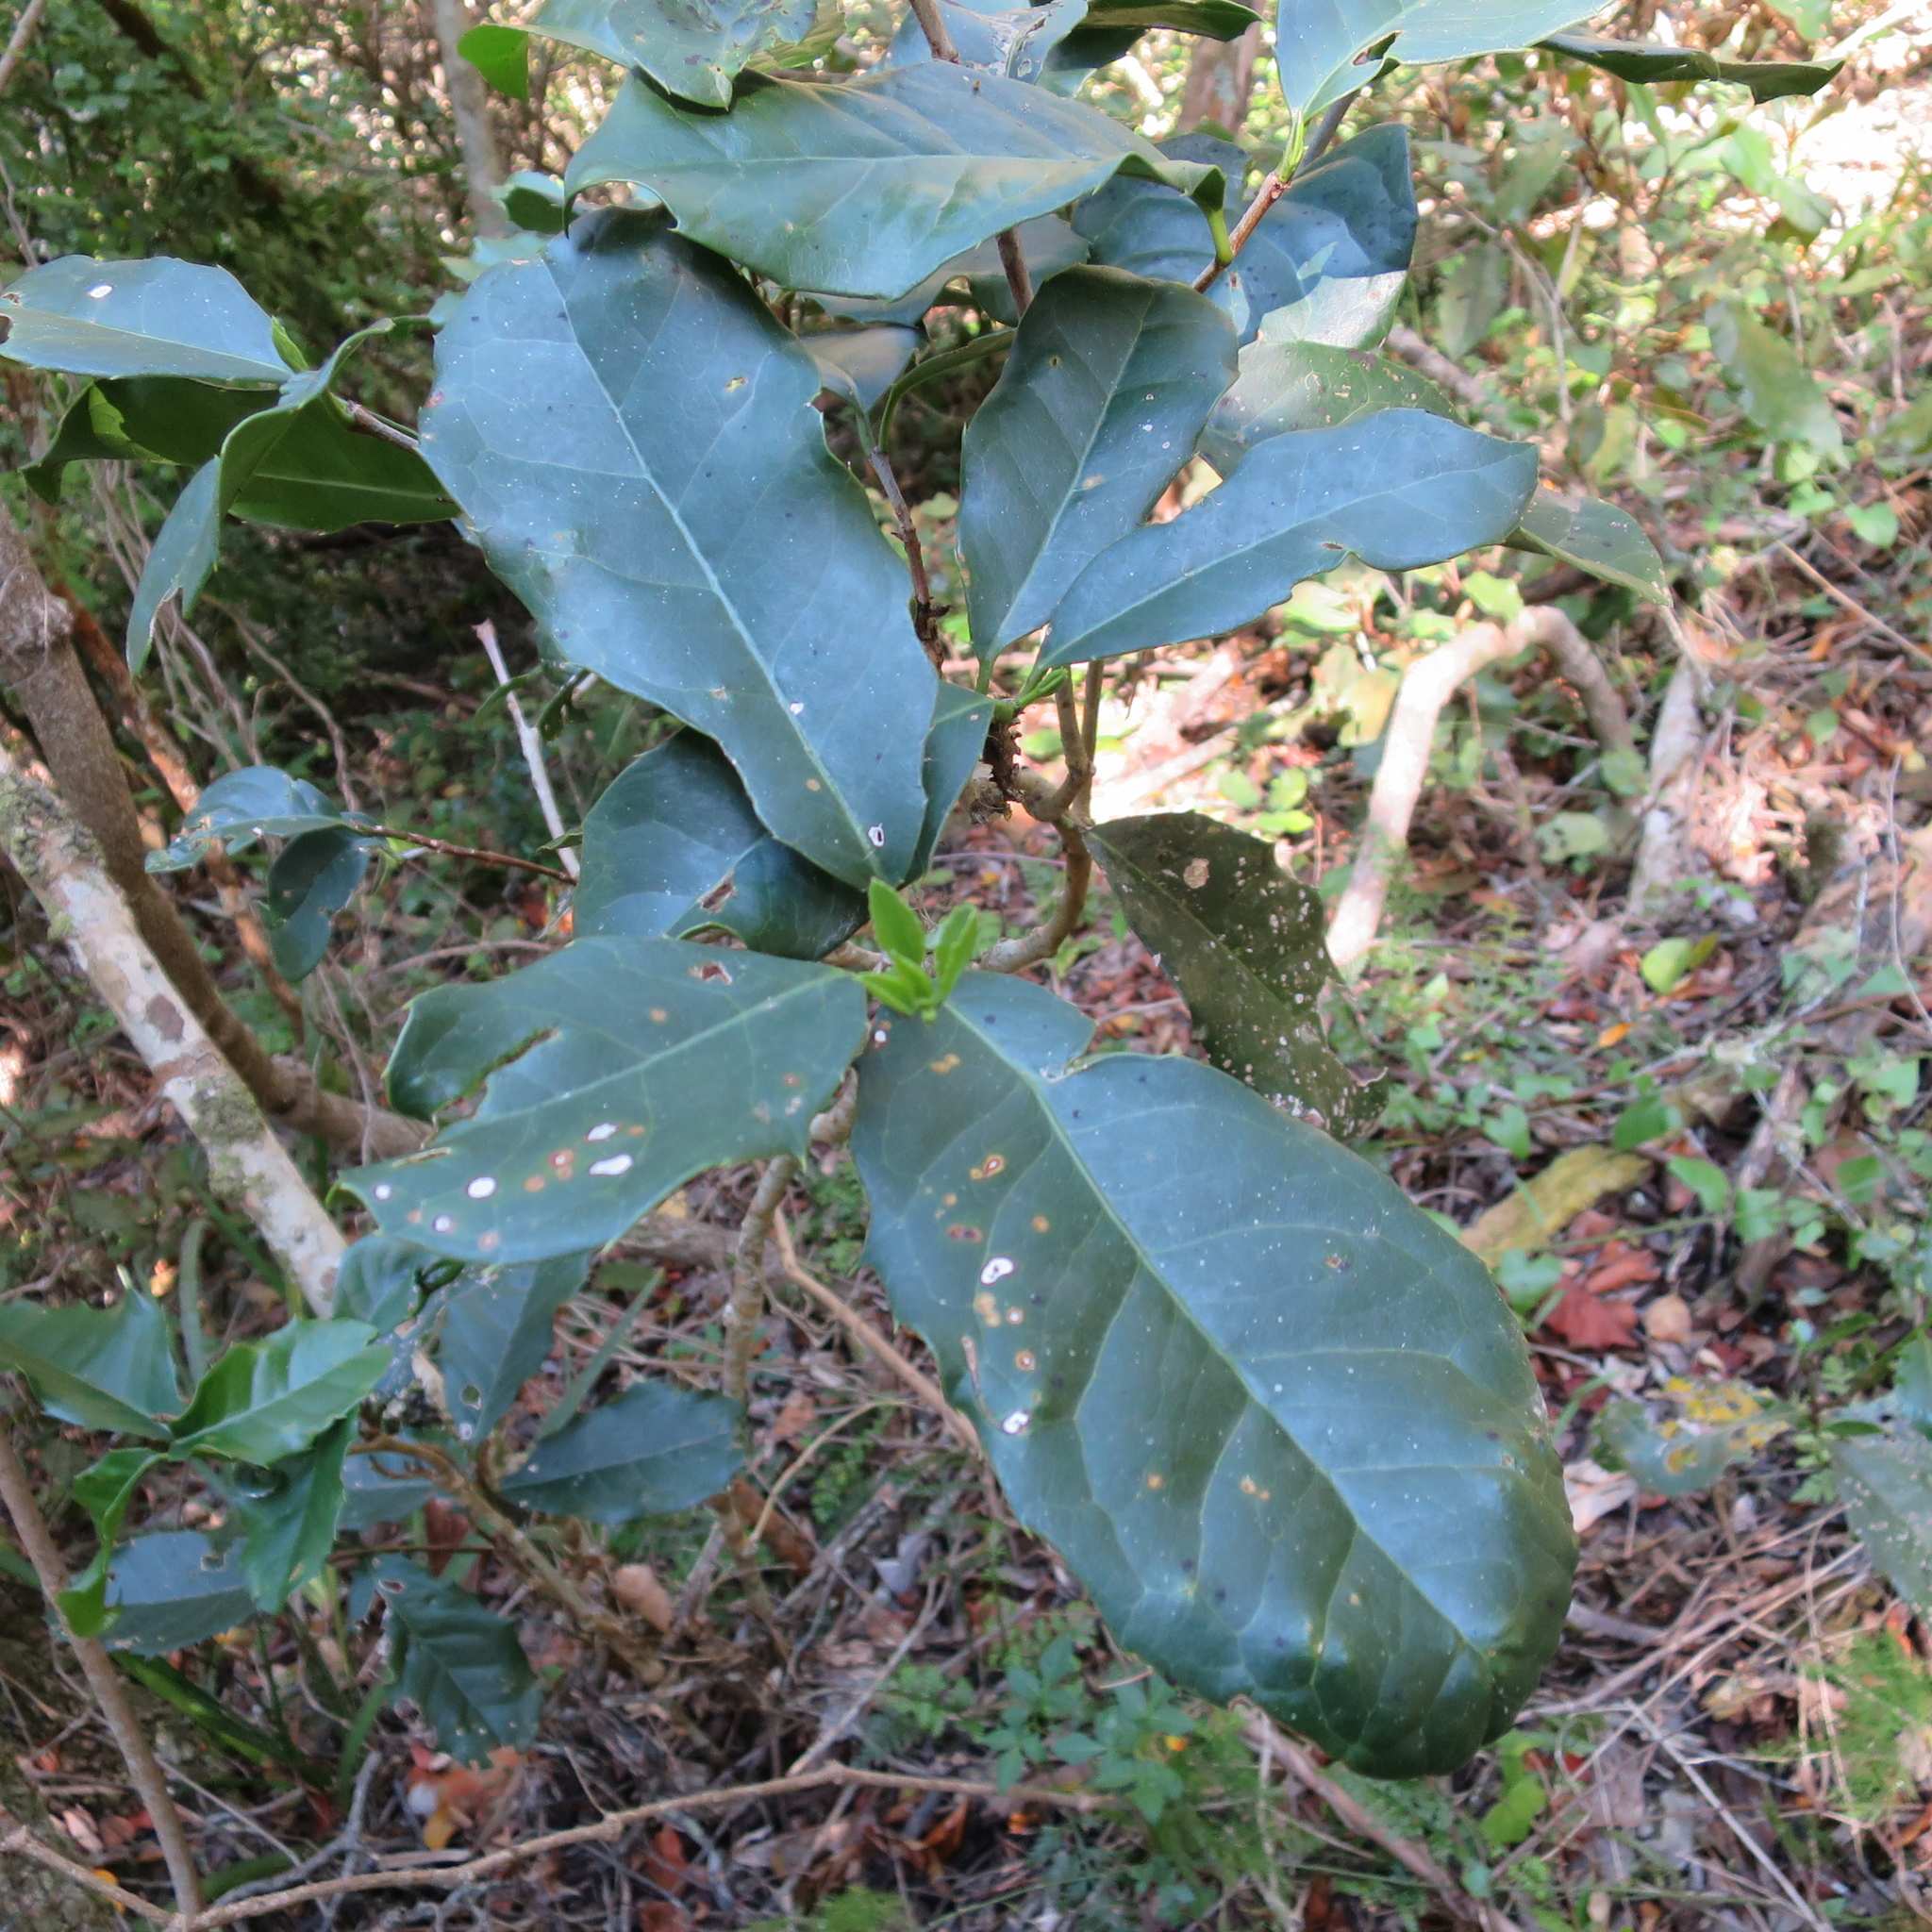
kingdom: Plantae
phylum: Tracheophyta
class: Magnoliopsida
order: Celastrales
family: Celastraceae
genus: Elaeodendron
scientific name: Elaeodendron croceum
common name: Saffron
